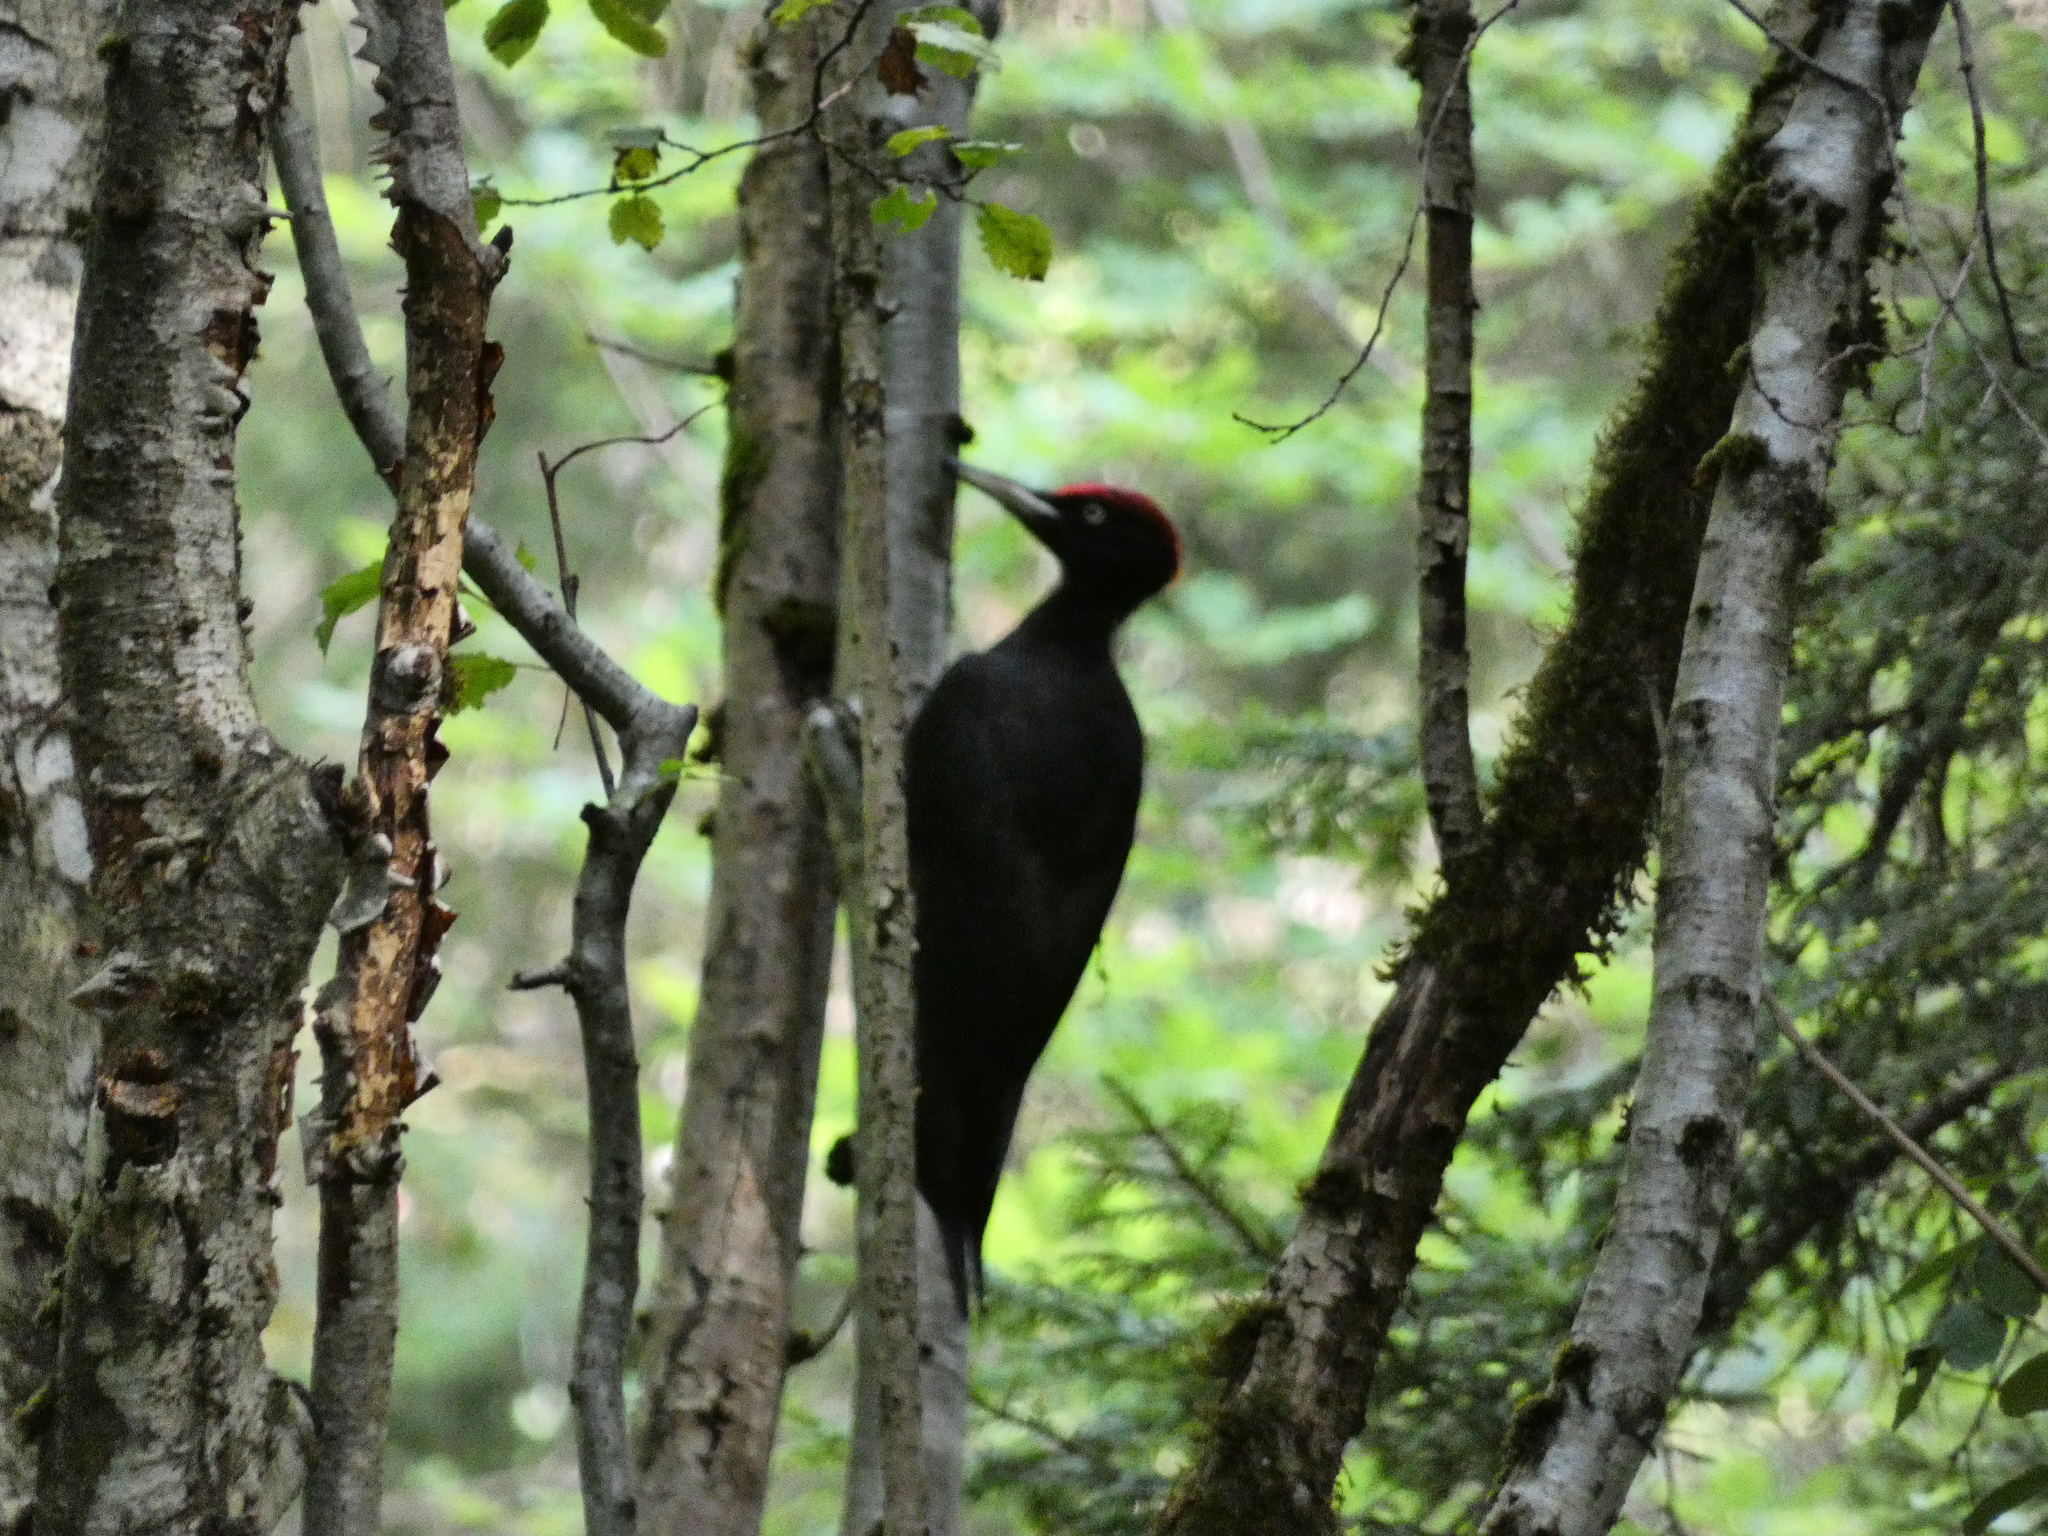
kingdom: Animalia
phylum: Chordata
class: Aves
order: Piciformes
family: Picidae
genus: Dryocopus
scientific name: Dryocopus martius
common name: Black woodpecker
